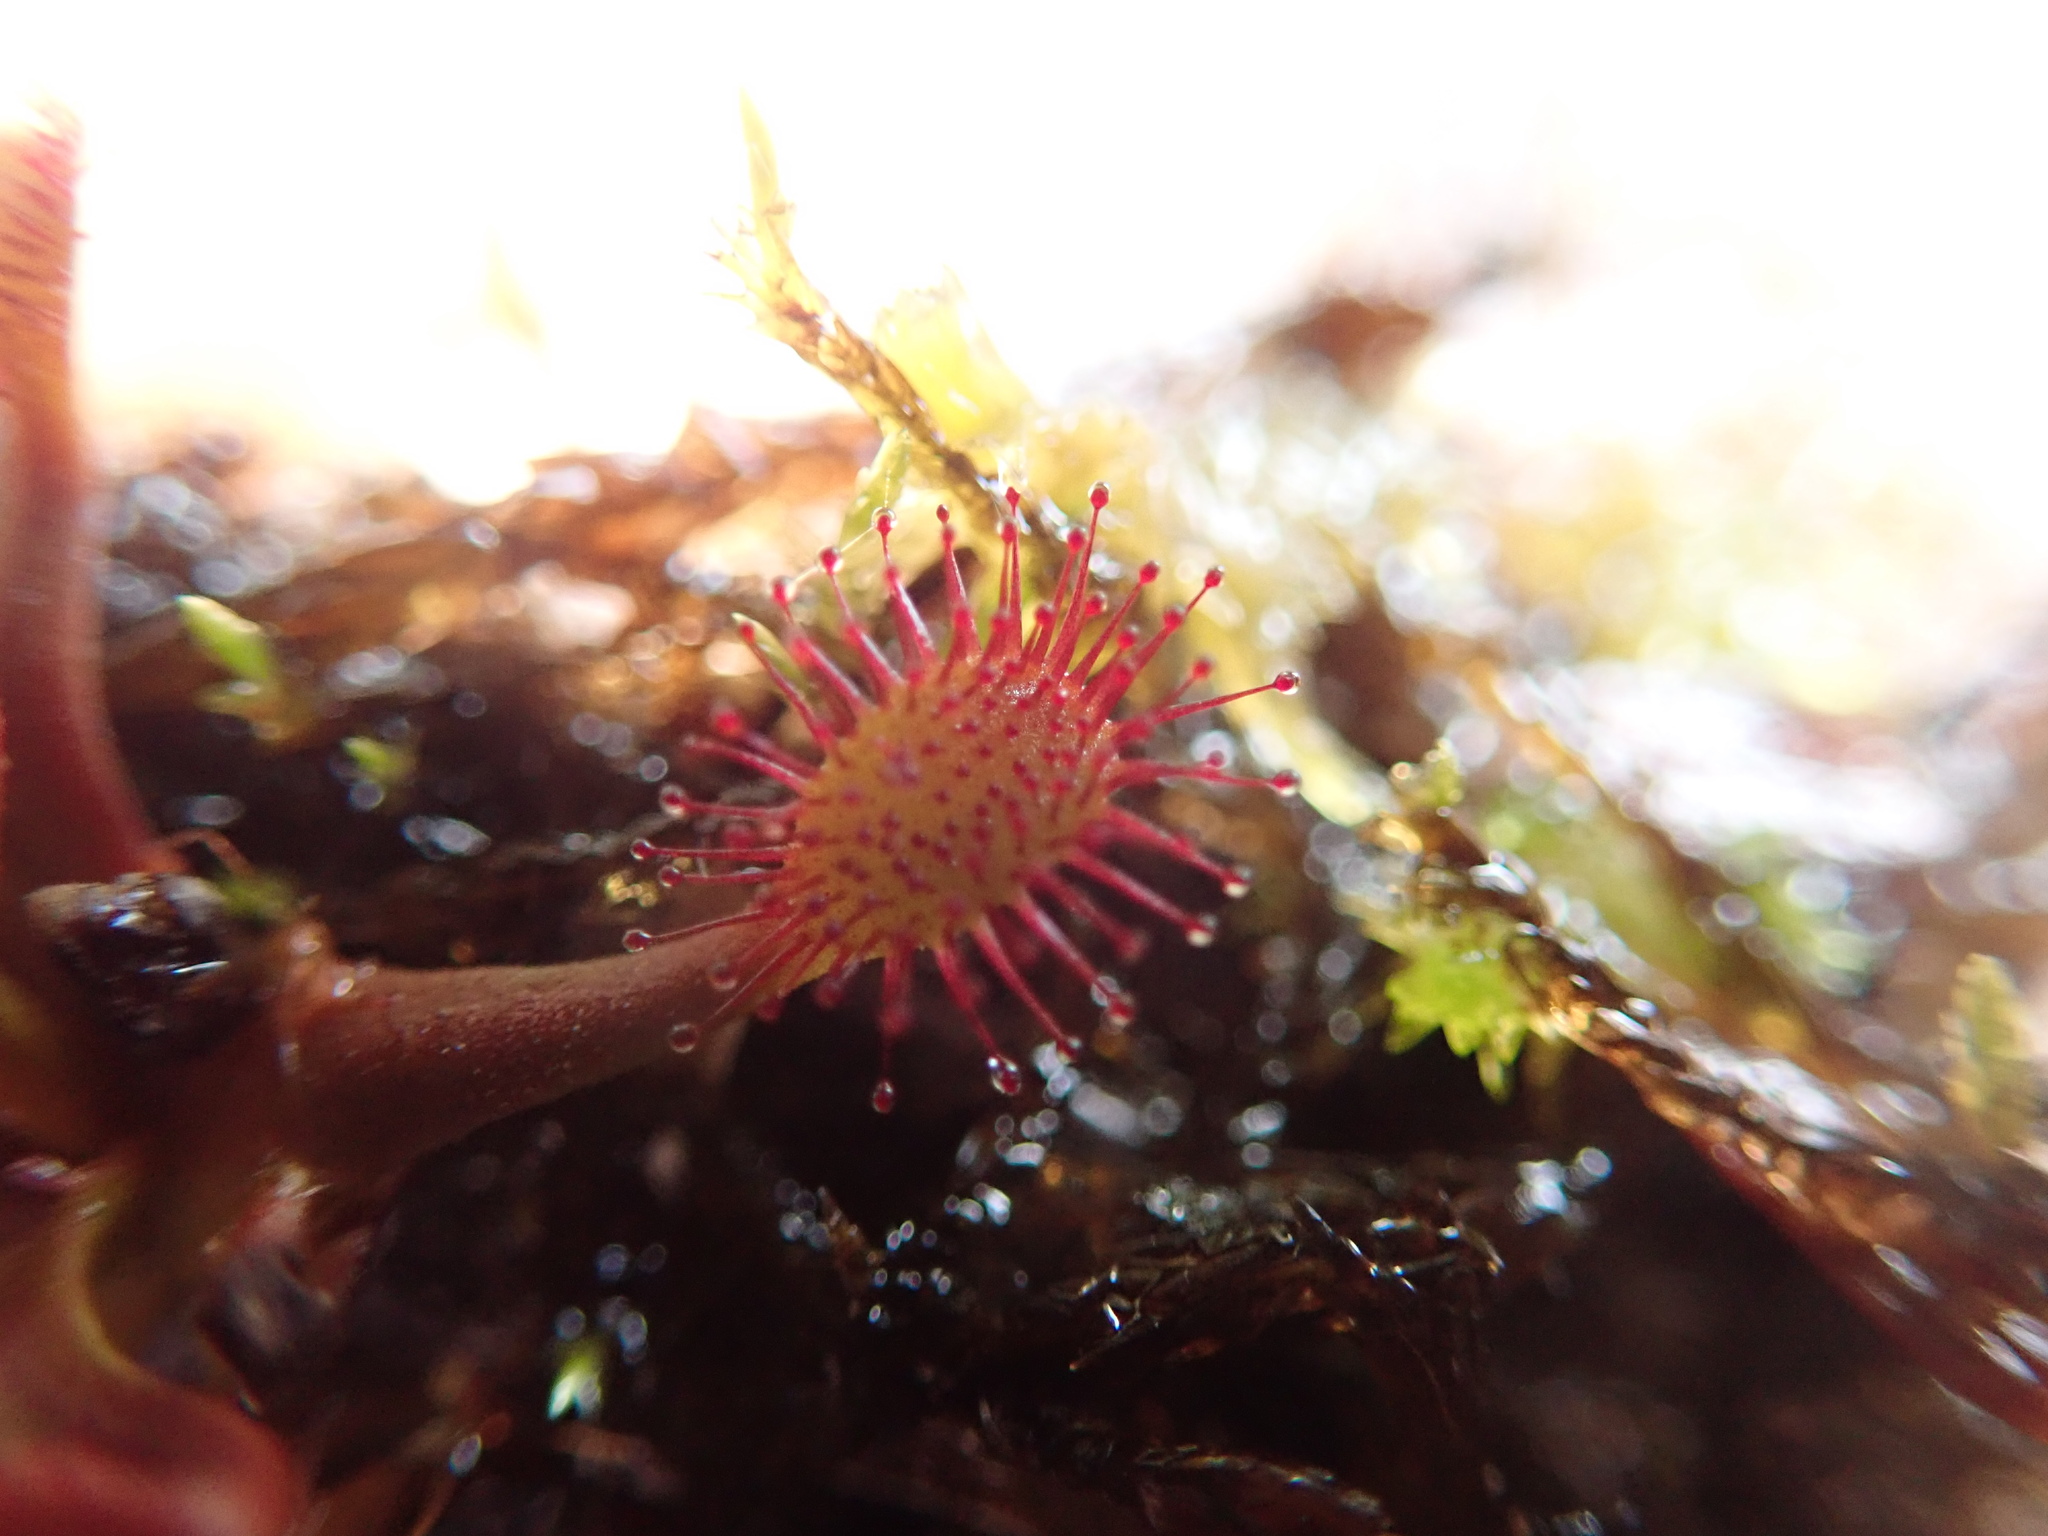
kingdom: Plantae
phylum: Tracheophyta
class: Magnoliopsida
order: Caryophyllales
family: Droseraceae
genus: Drosera
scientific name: Drosera rotundifolia
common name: Round-leaved sundew
